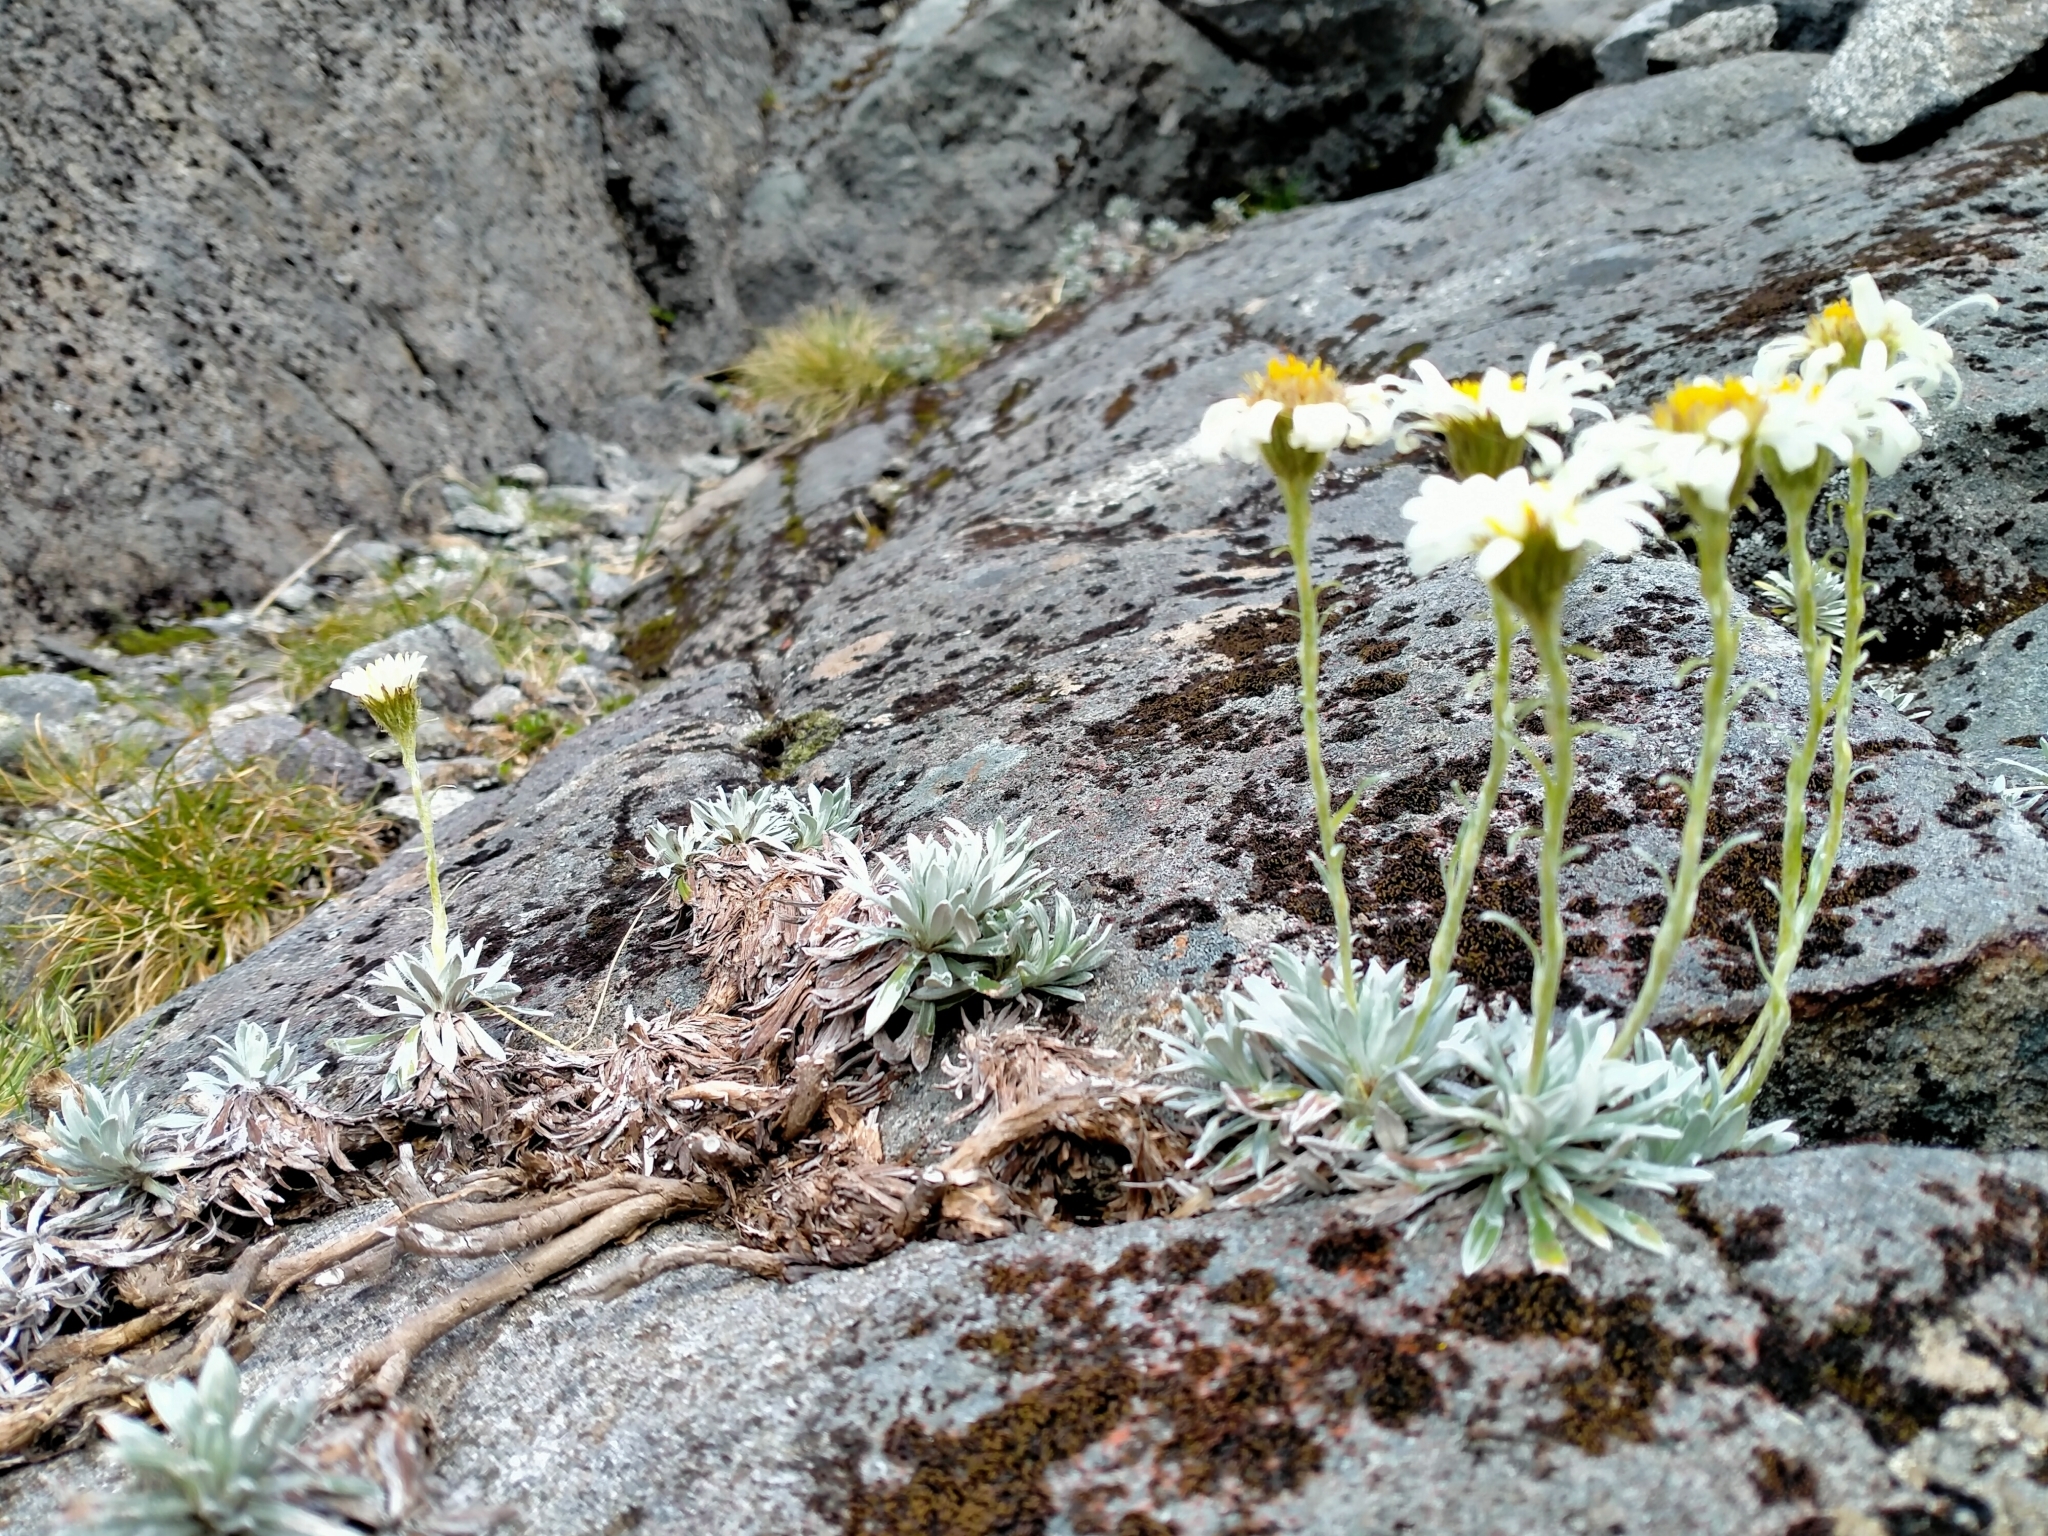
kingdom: Plantae
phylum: Tracheophyta
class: Magnoliopsida
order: Asterales
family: Asteraceae
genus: Celmisia
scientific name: Celmisia hectorii
